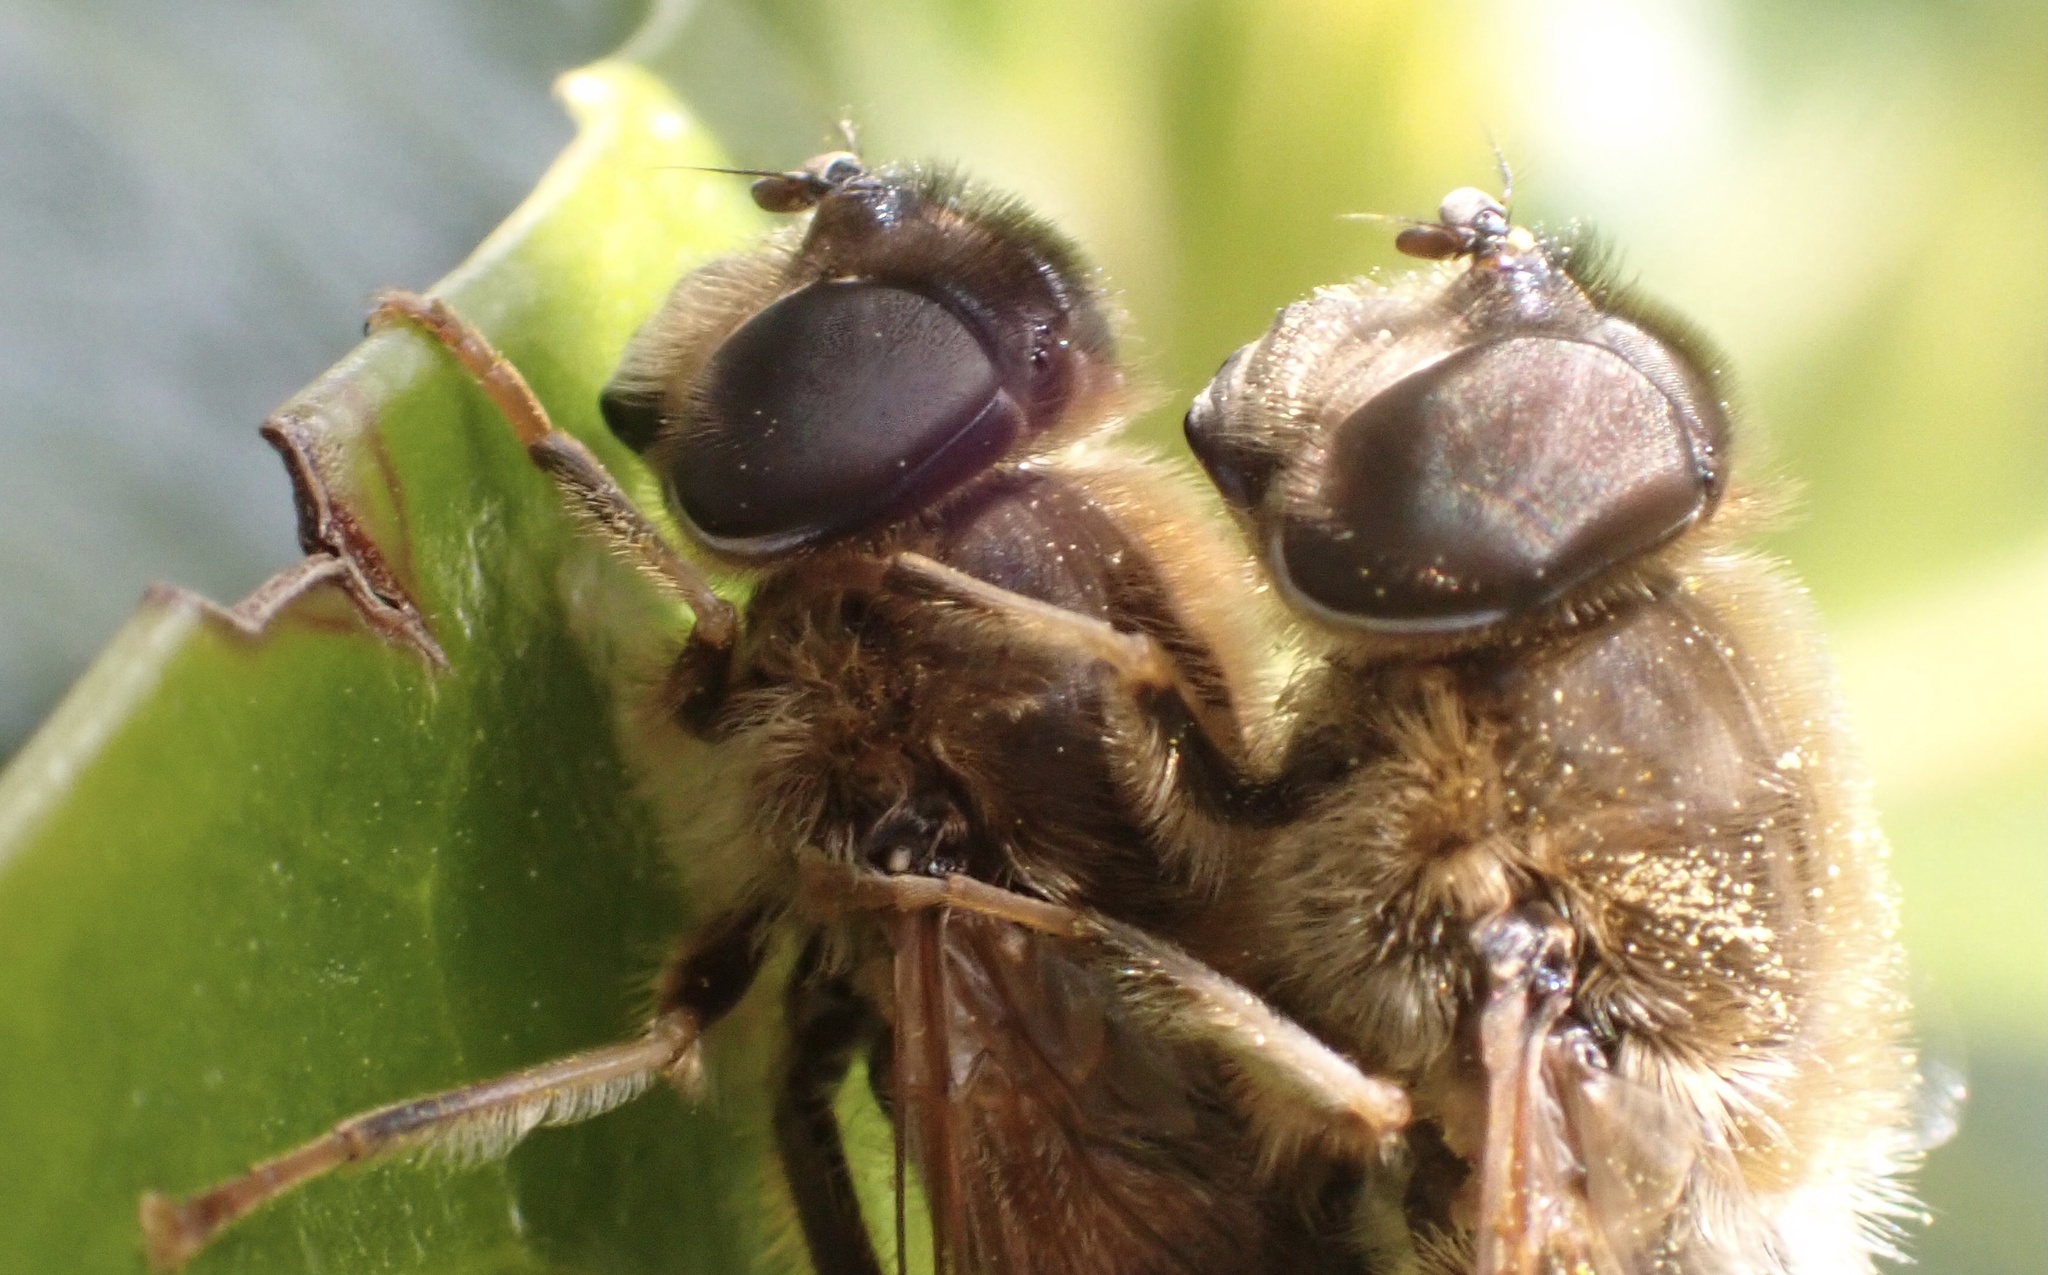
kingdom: Animalia
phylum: Arthropoda
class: Insecta
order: Diptera
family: Syrphidae
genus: Eristalis
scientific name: Eristalis pertinax
